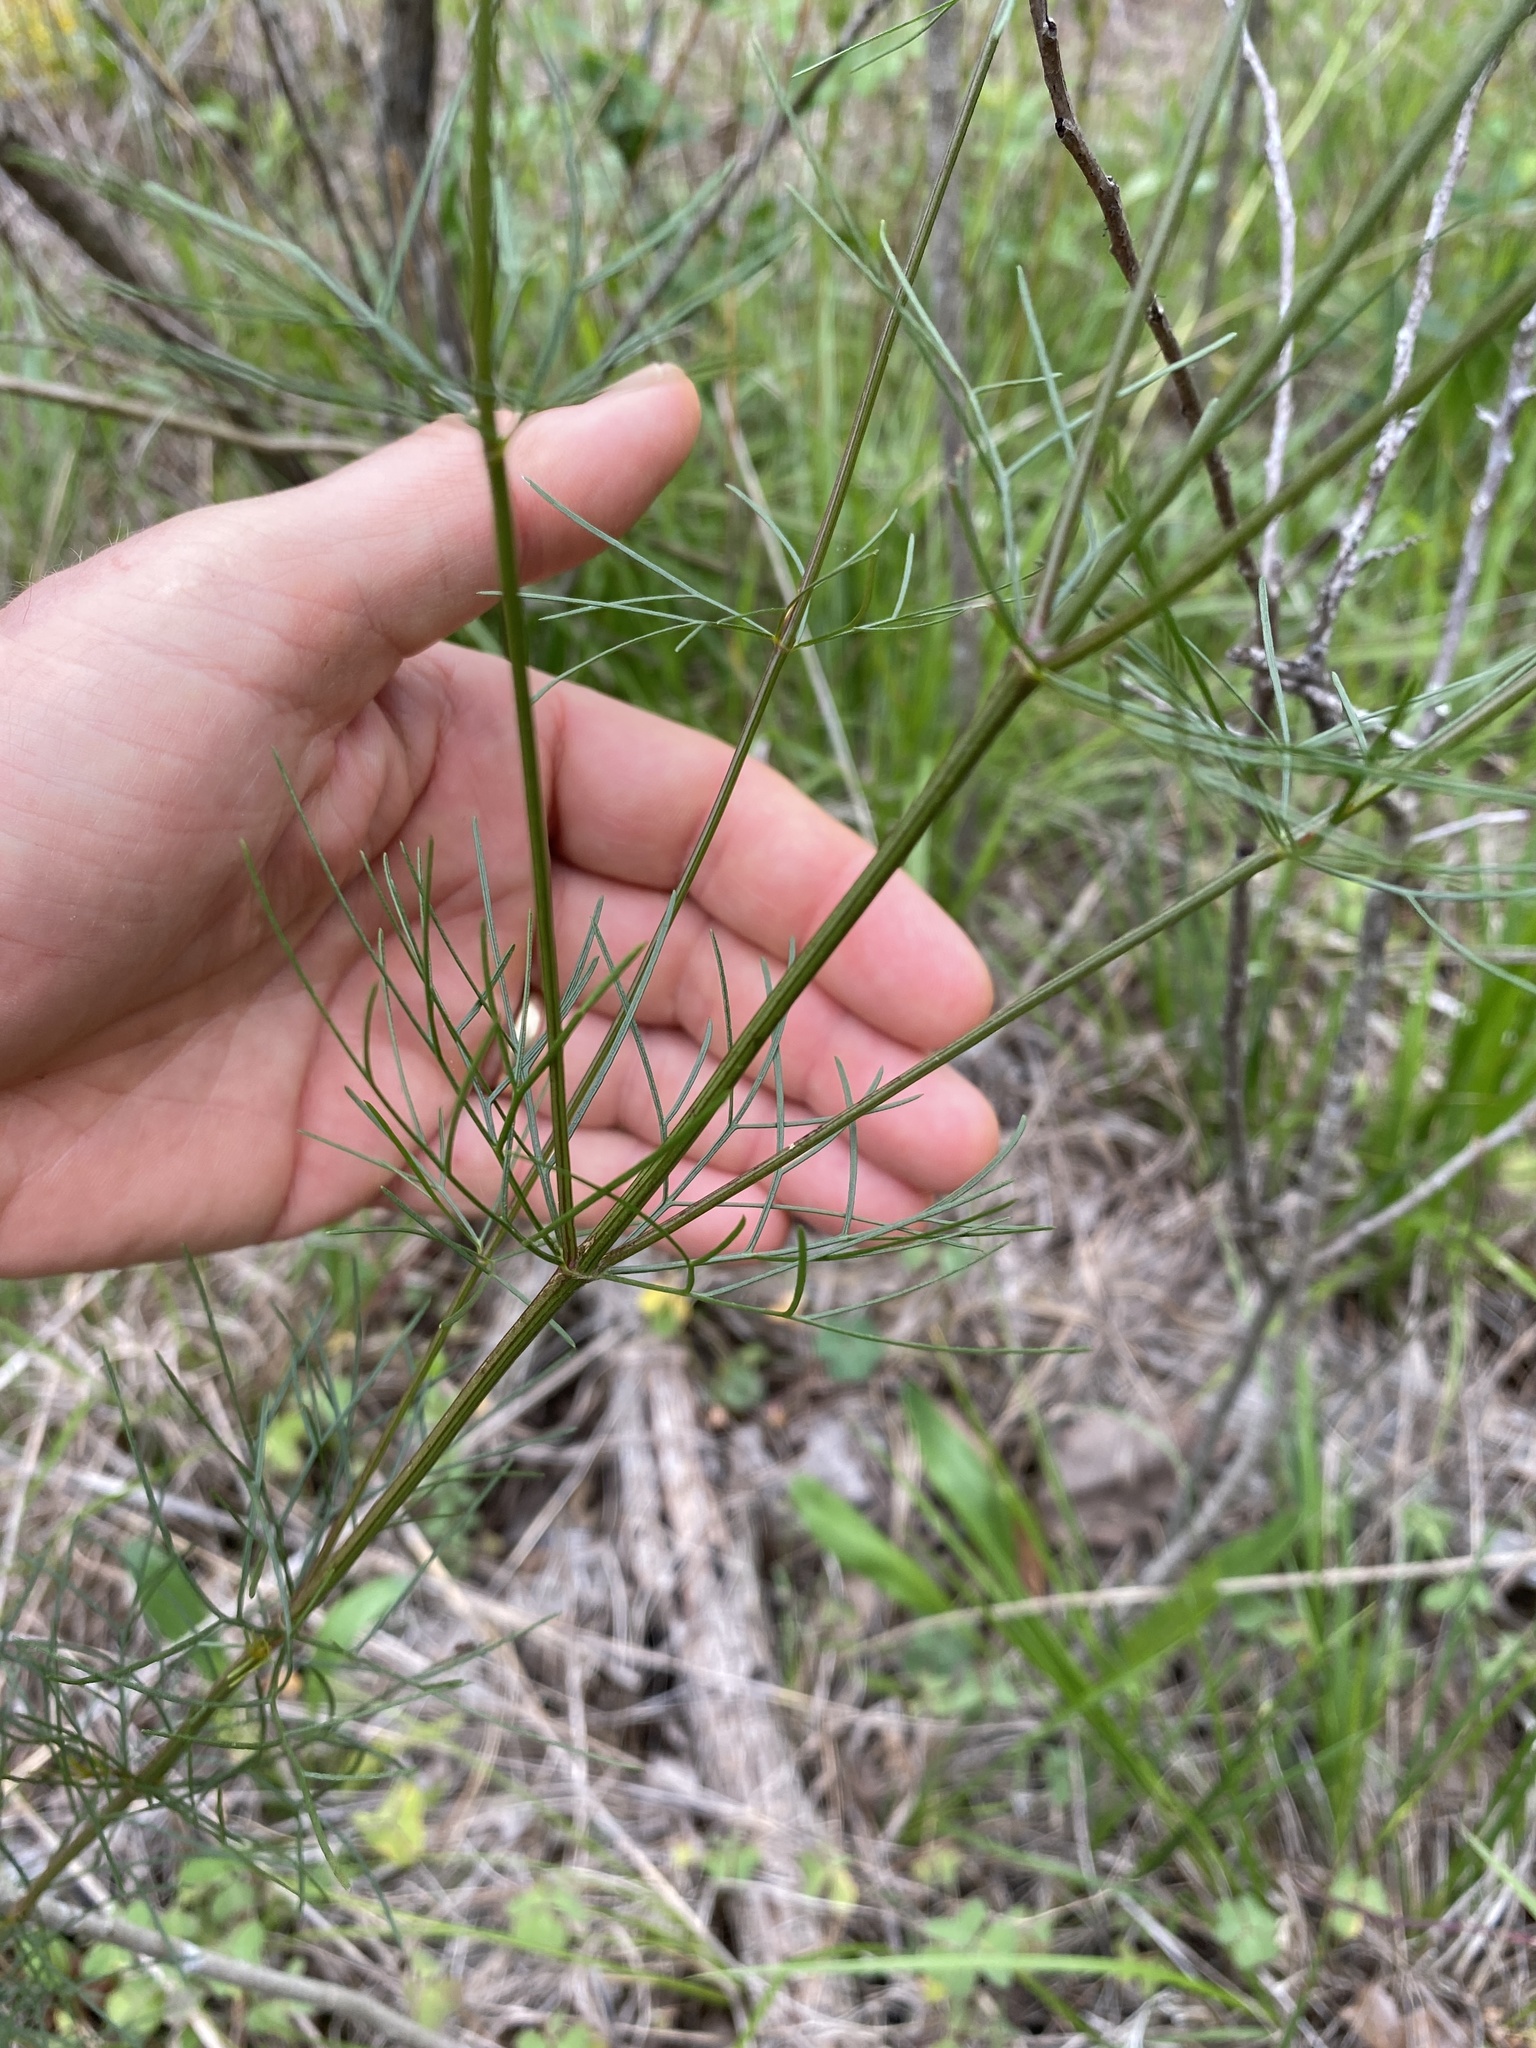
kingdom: Plantae
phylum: Tracheophyta
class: Magnoliopsida
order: Asterales
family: Asteraceae
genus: Coreopsis
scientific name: Coreopsis verticillata
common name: Whorled tickseed
